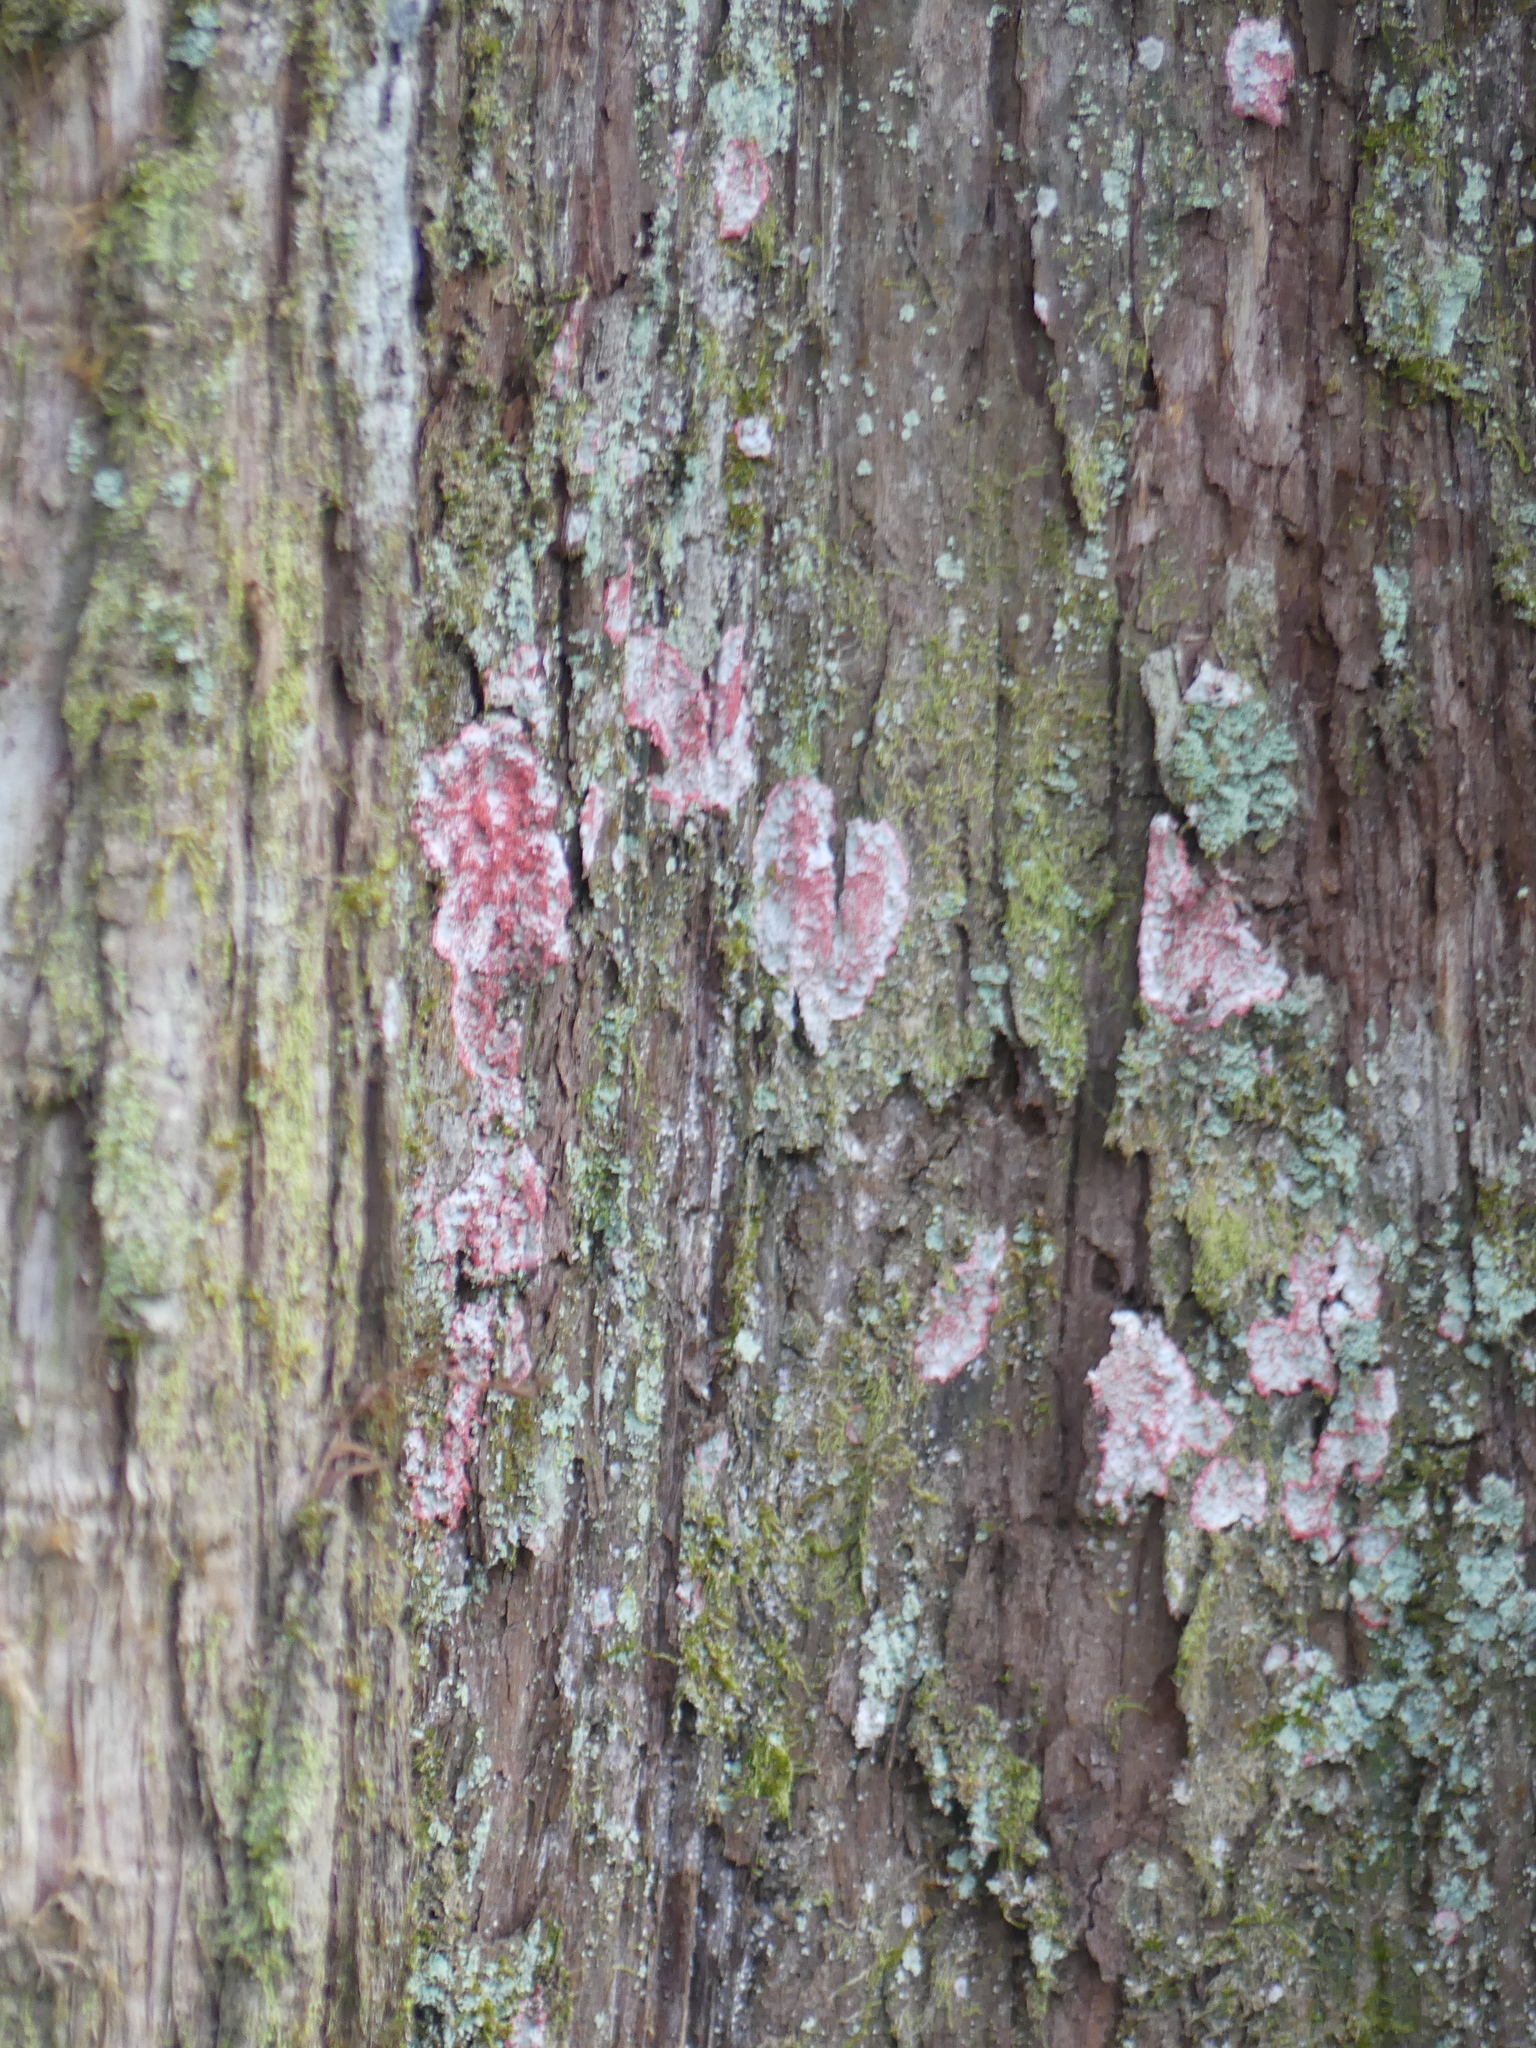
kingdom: Fungi
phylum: Ascomycota
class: Arthoniomycetes
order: Arthoniales
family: Arthoniaceae
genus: Herpothallon
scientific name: Herpothallon rubrocinctum
